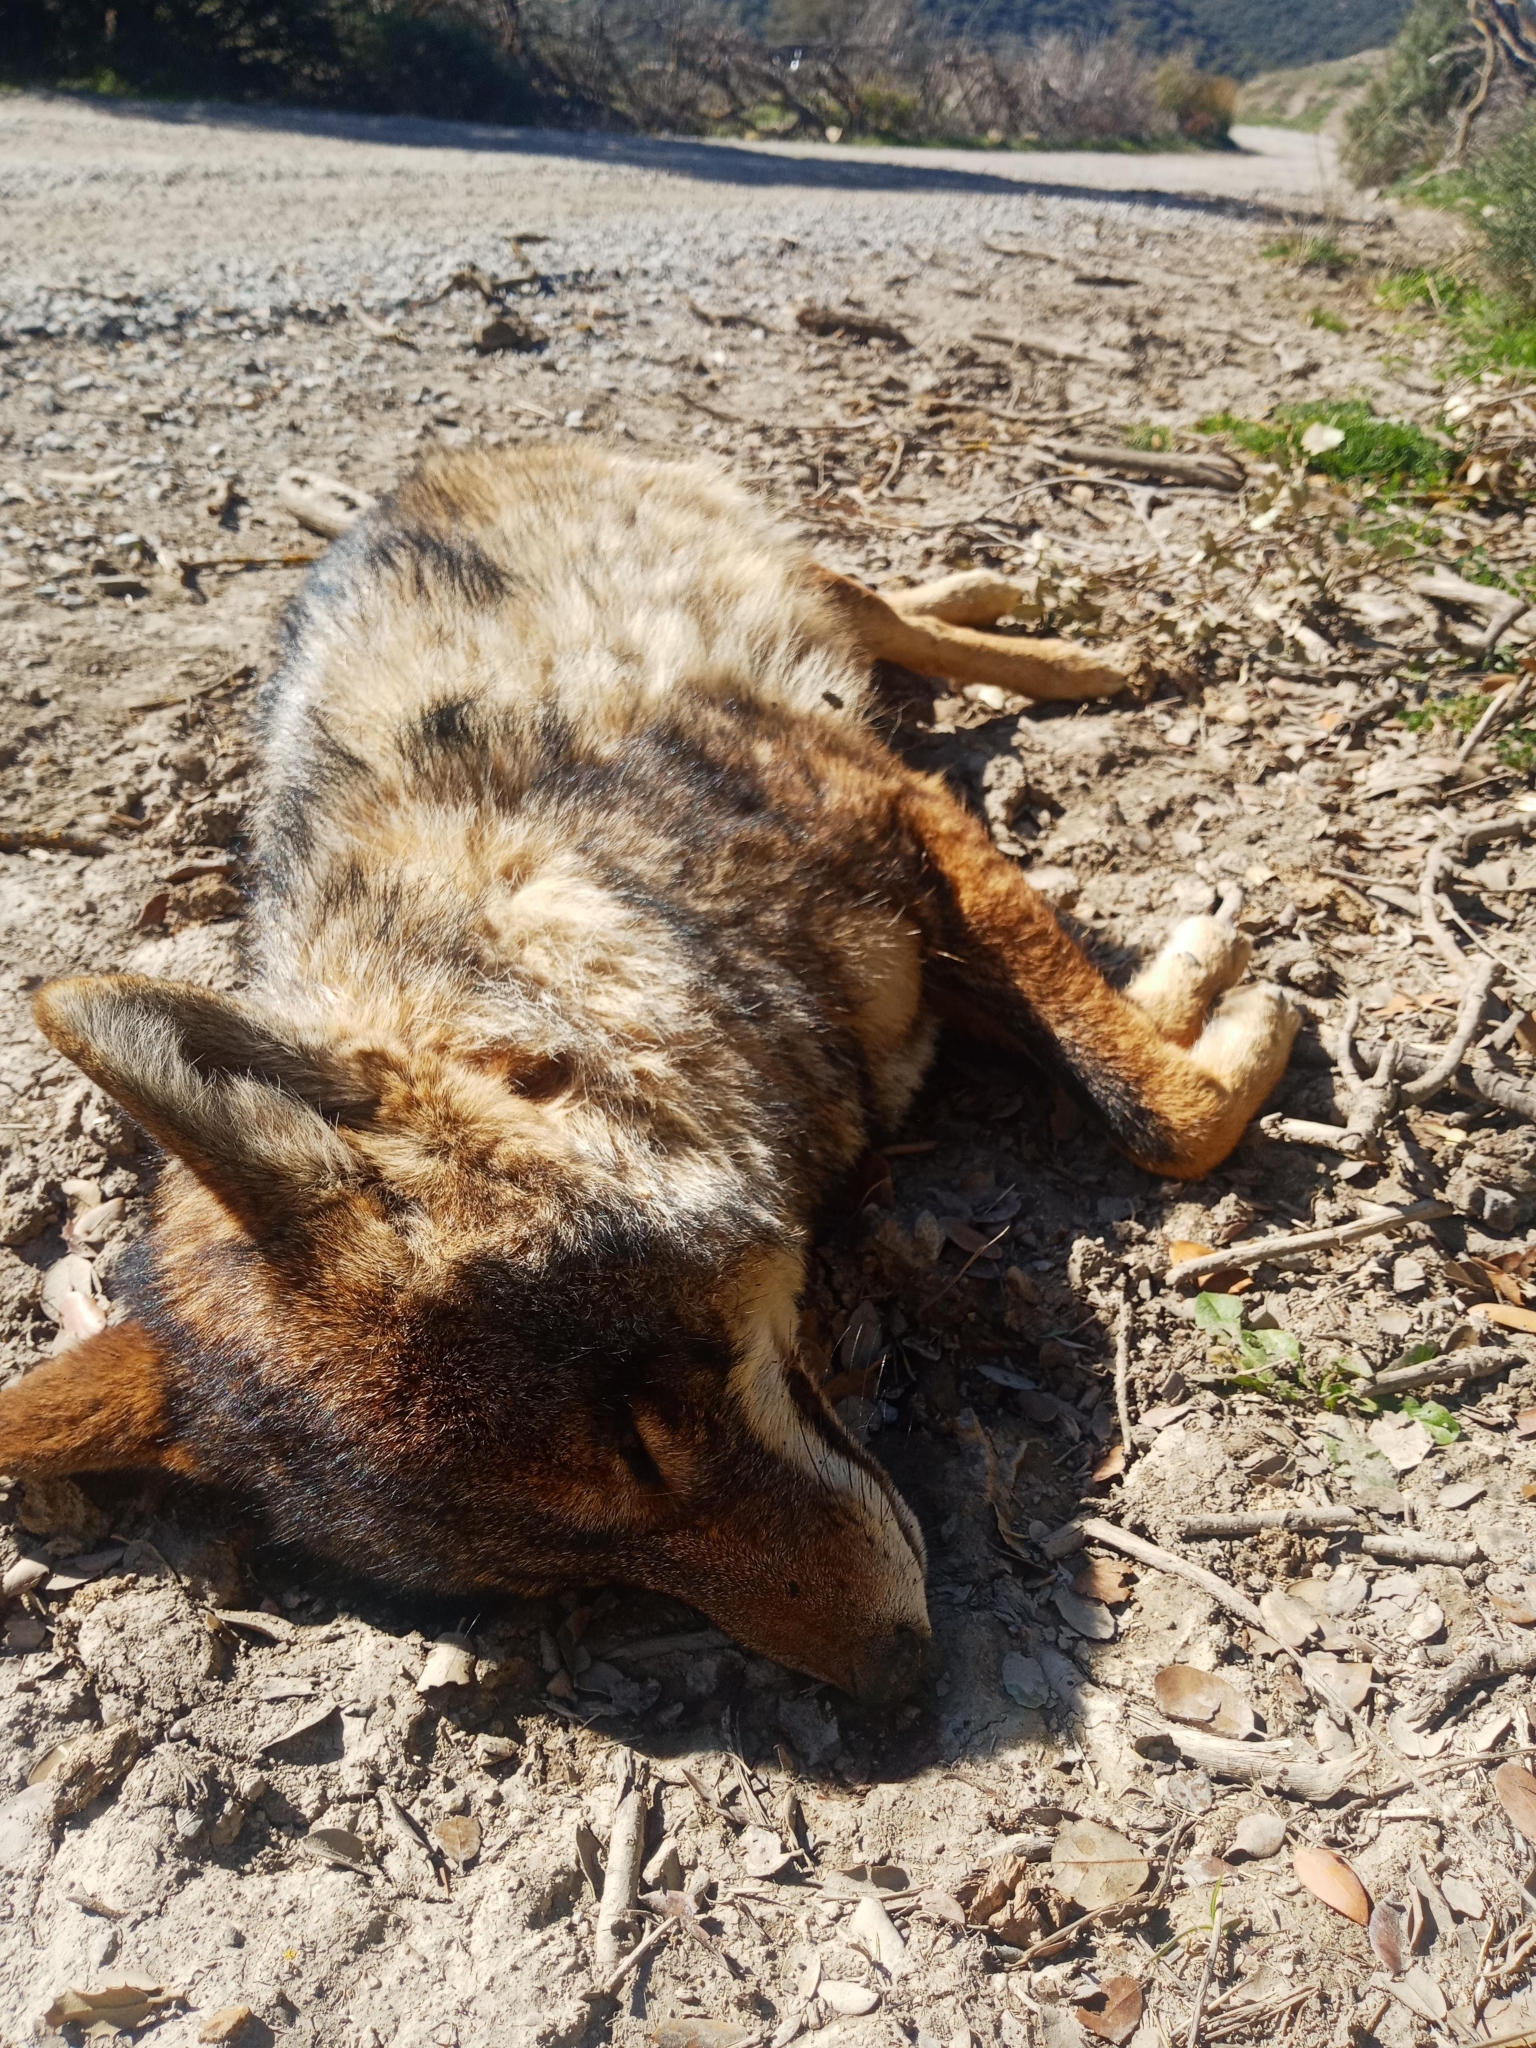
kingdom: Animalia
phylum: Chordata
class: Mammalia
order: Carnivora
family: Canidae
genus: Canis
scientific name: Canis lupaster
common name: African golden wolf
